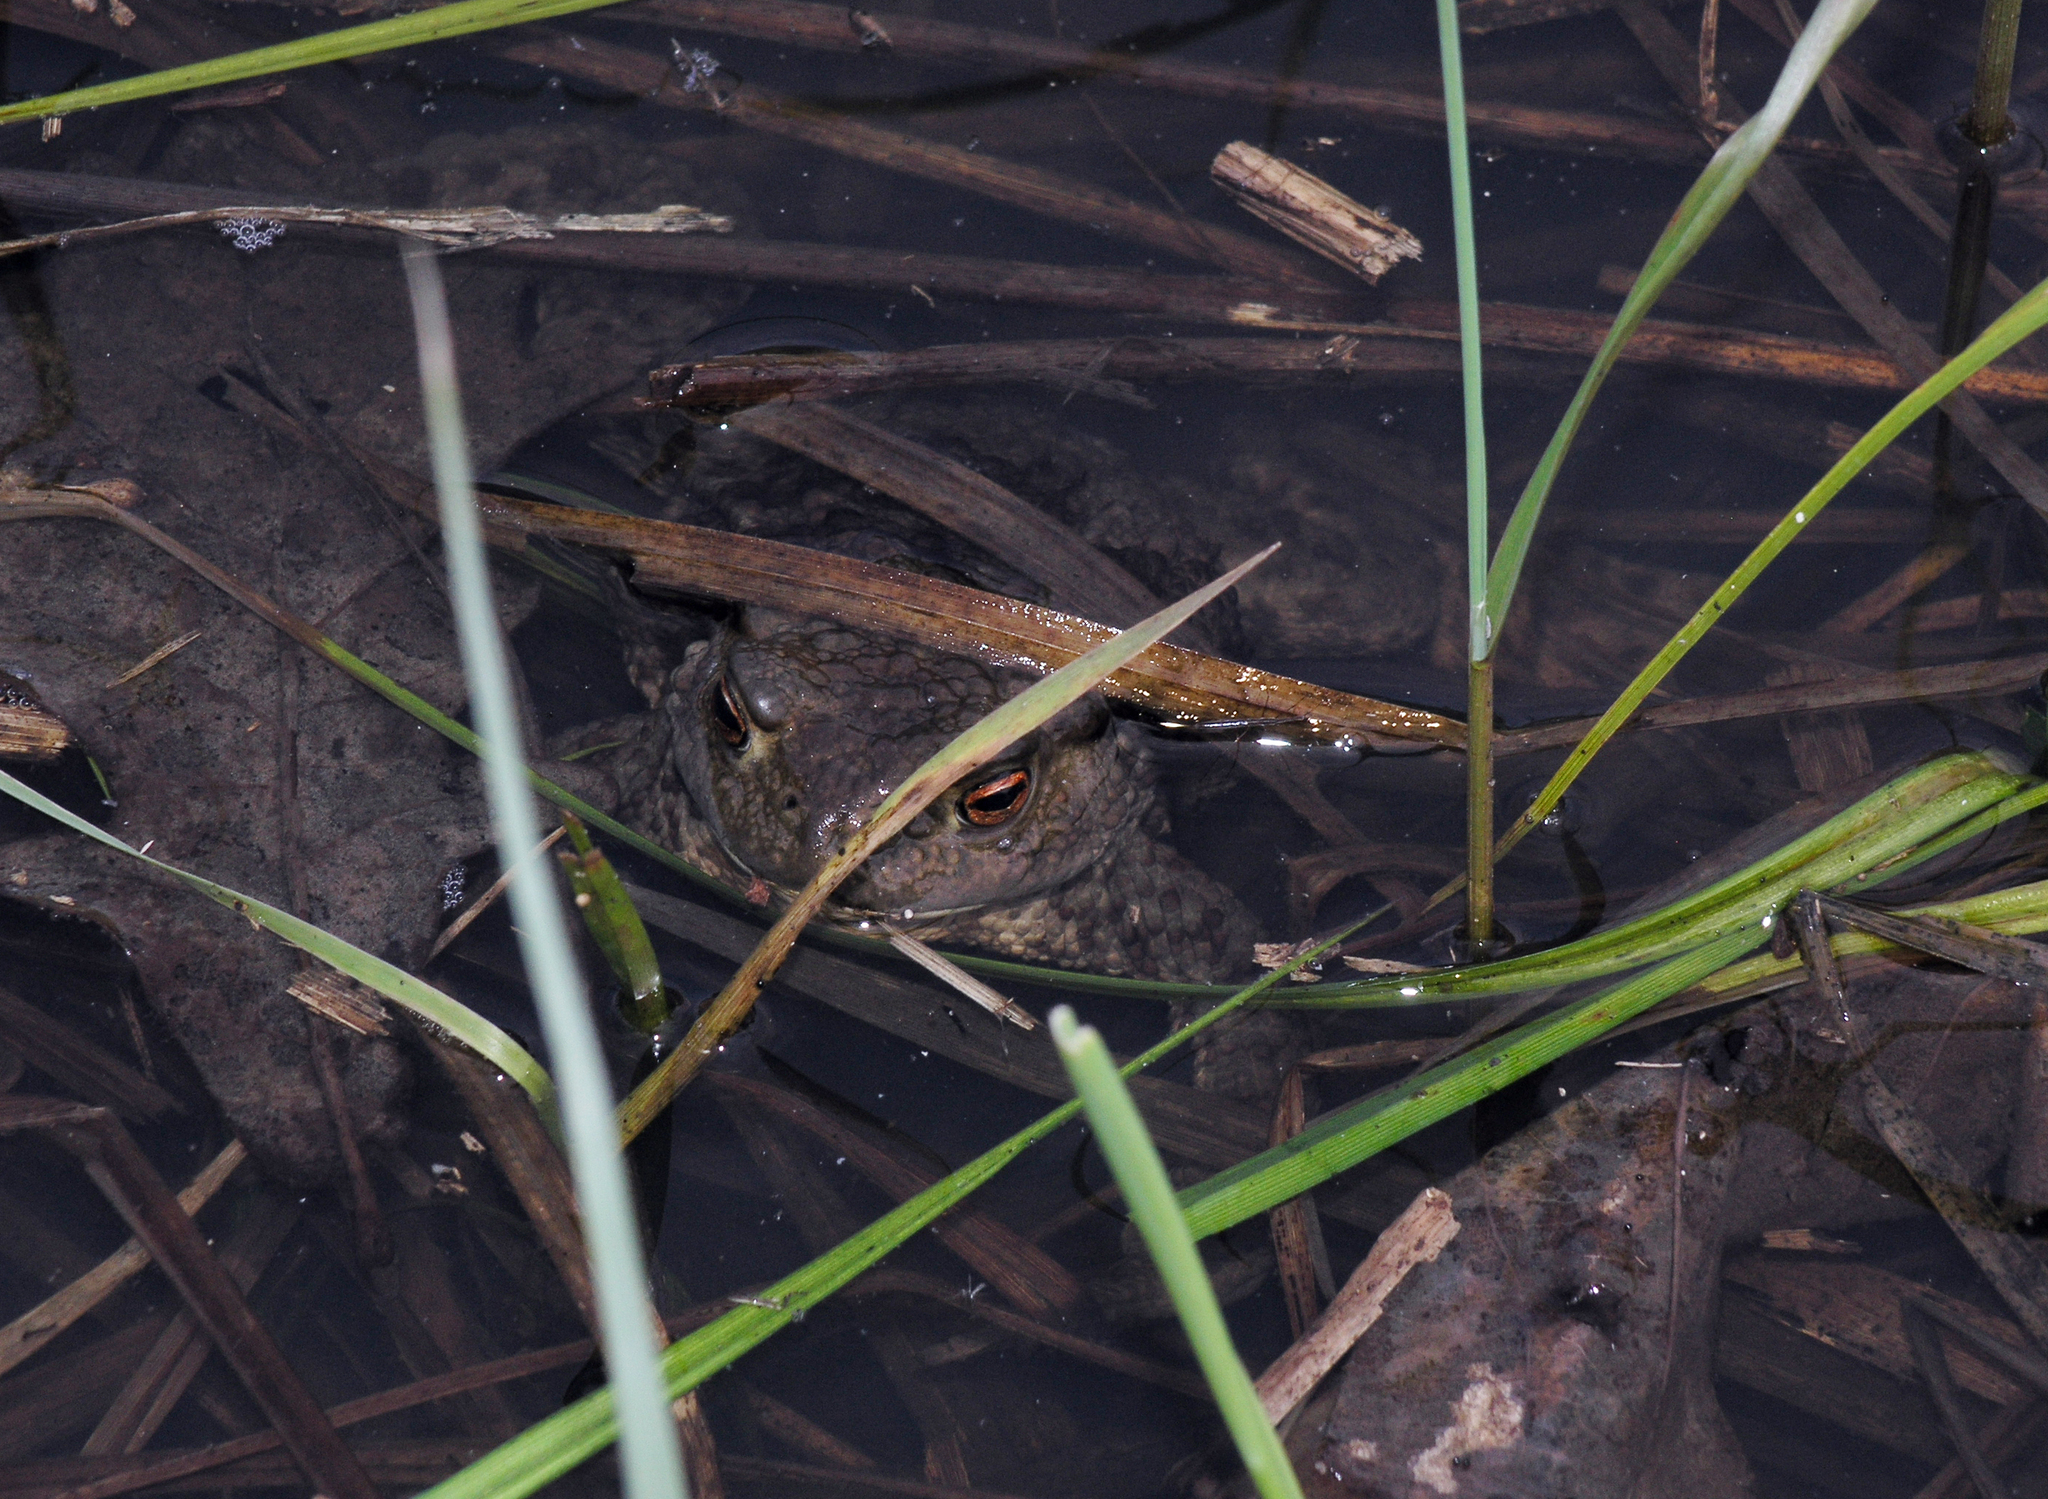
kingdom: Animalia
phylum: Chordata
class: Amphibia
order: Anura
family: Bufonidae
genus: Bufo
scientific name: Bufo bufo
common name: Common toad
